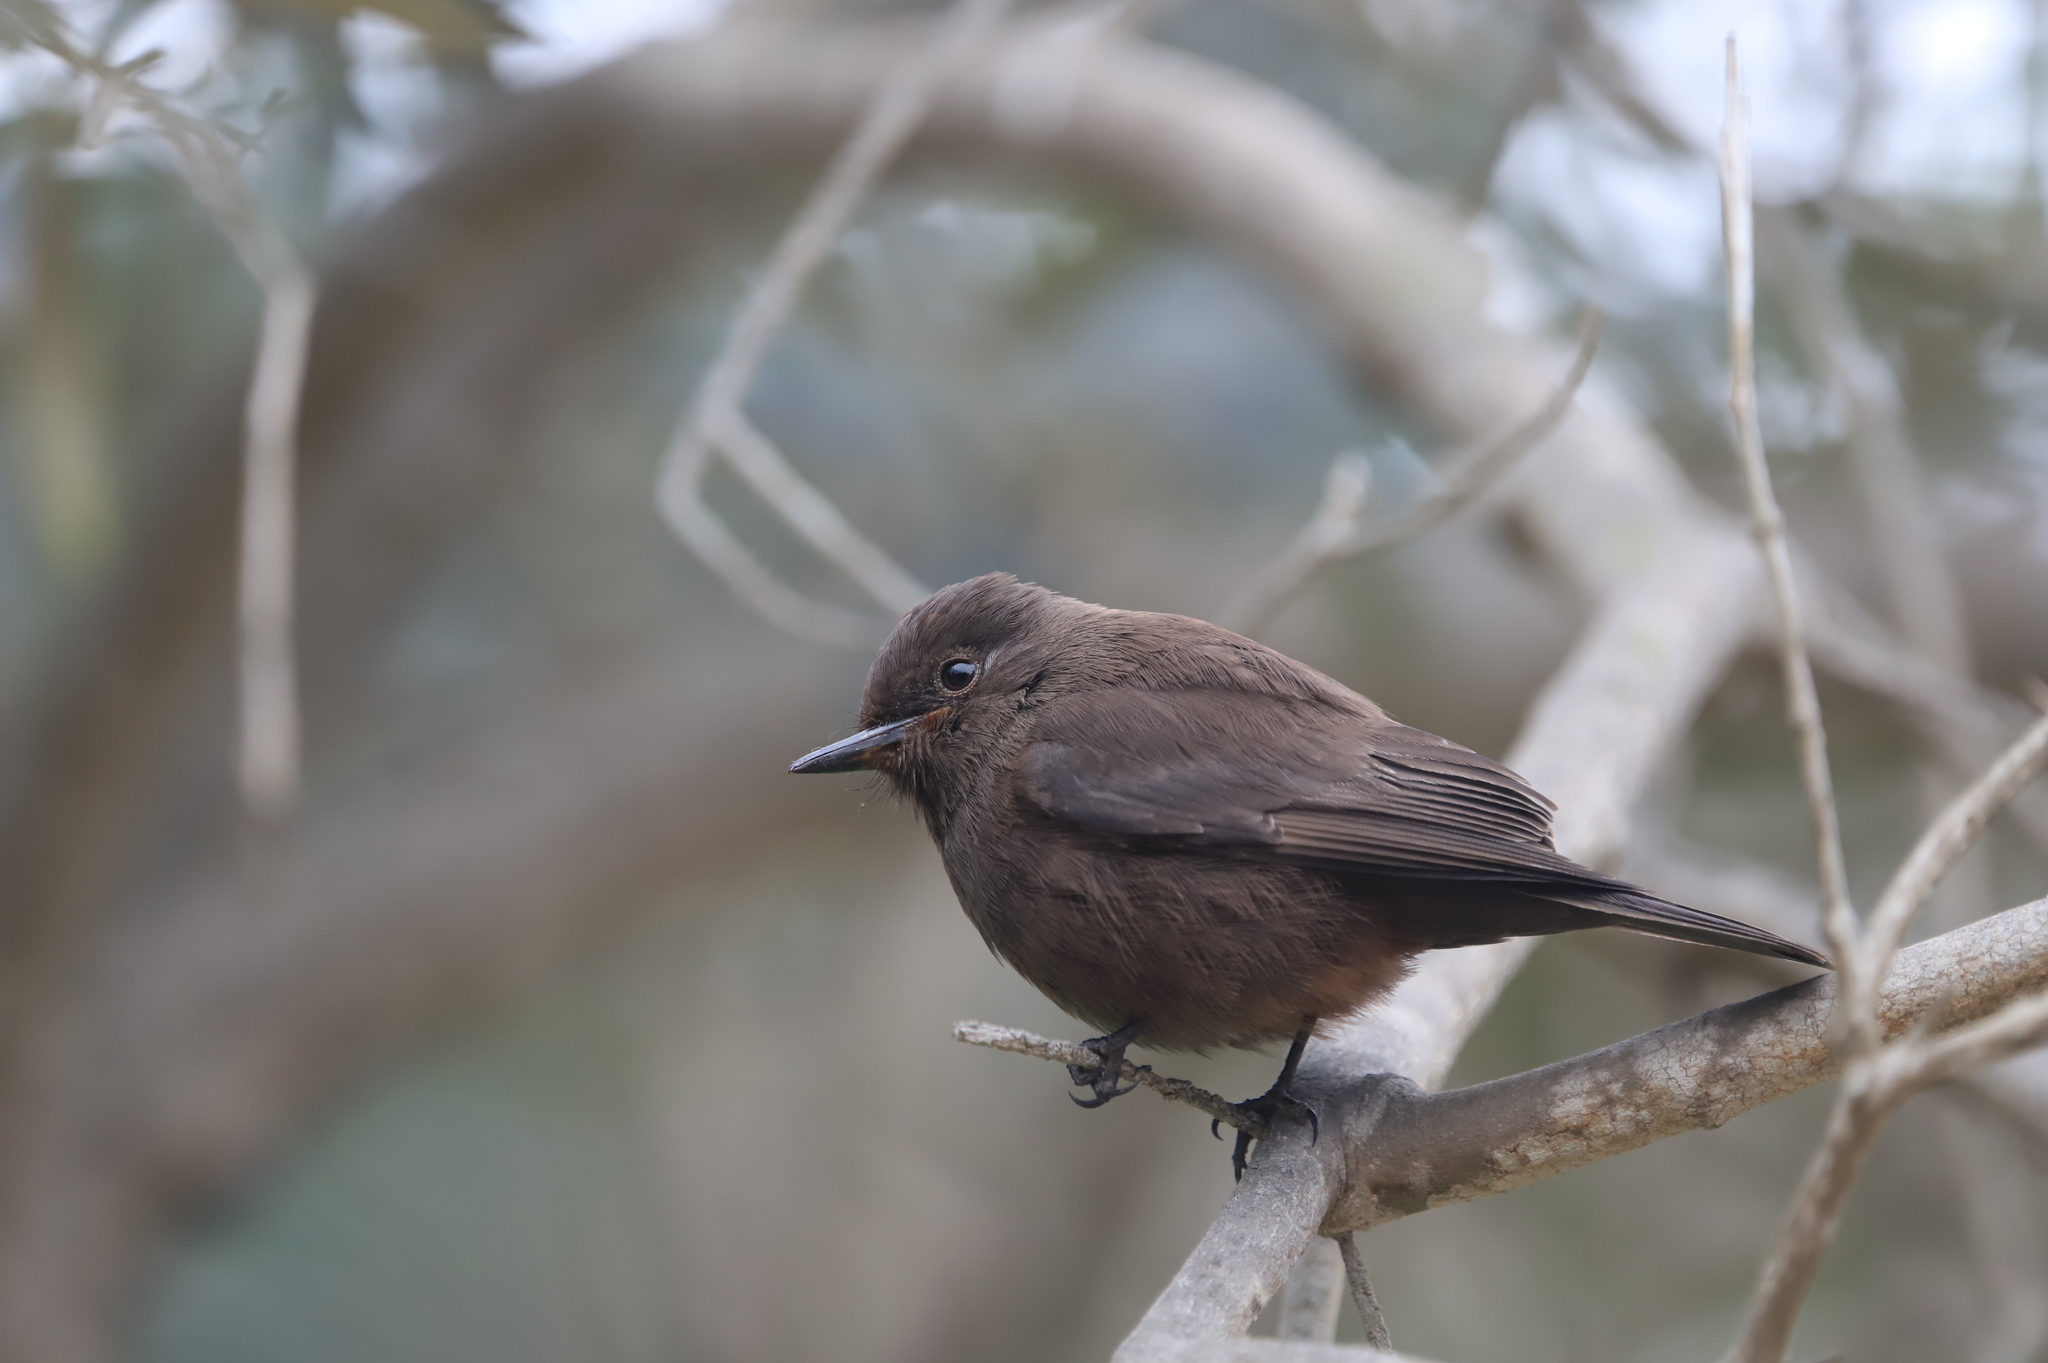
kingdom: Animalia
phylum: Chordata
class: Aves
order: Passeriformes
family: Tyrannidae
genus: Pyrocephalus
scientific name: Pyrocephalus rubinus
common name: Vermilion flycatcher
